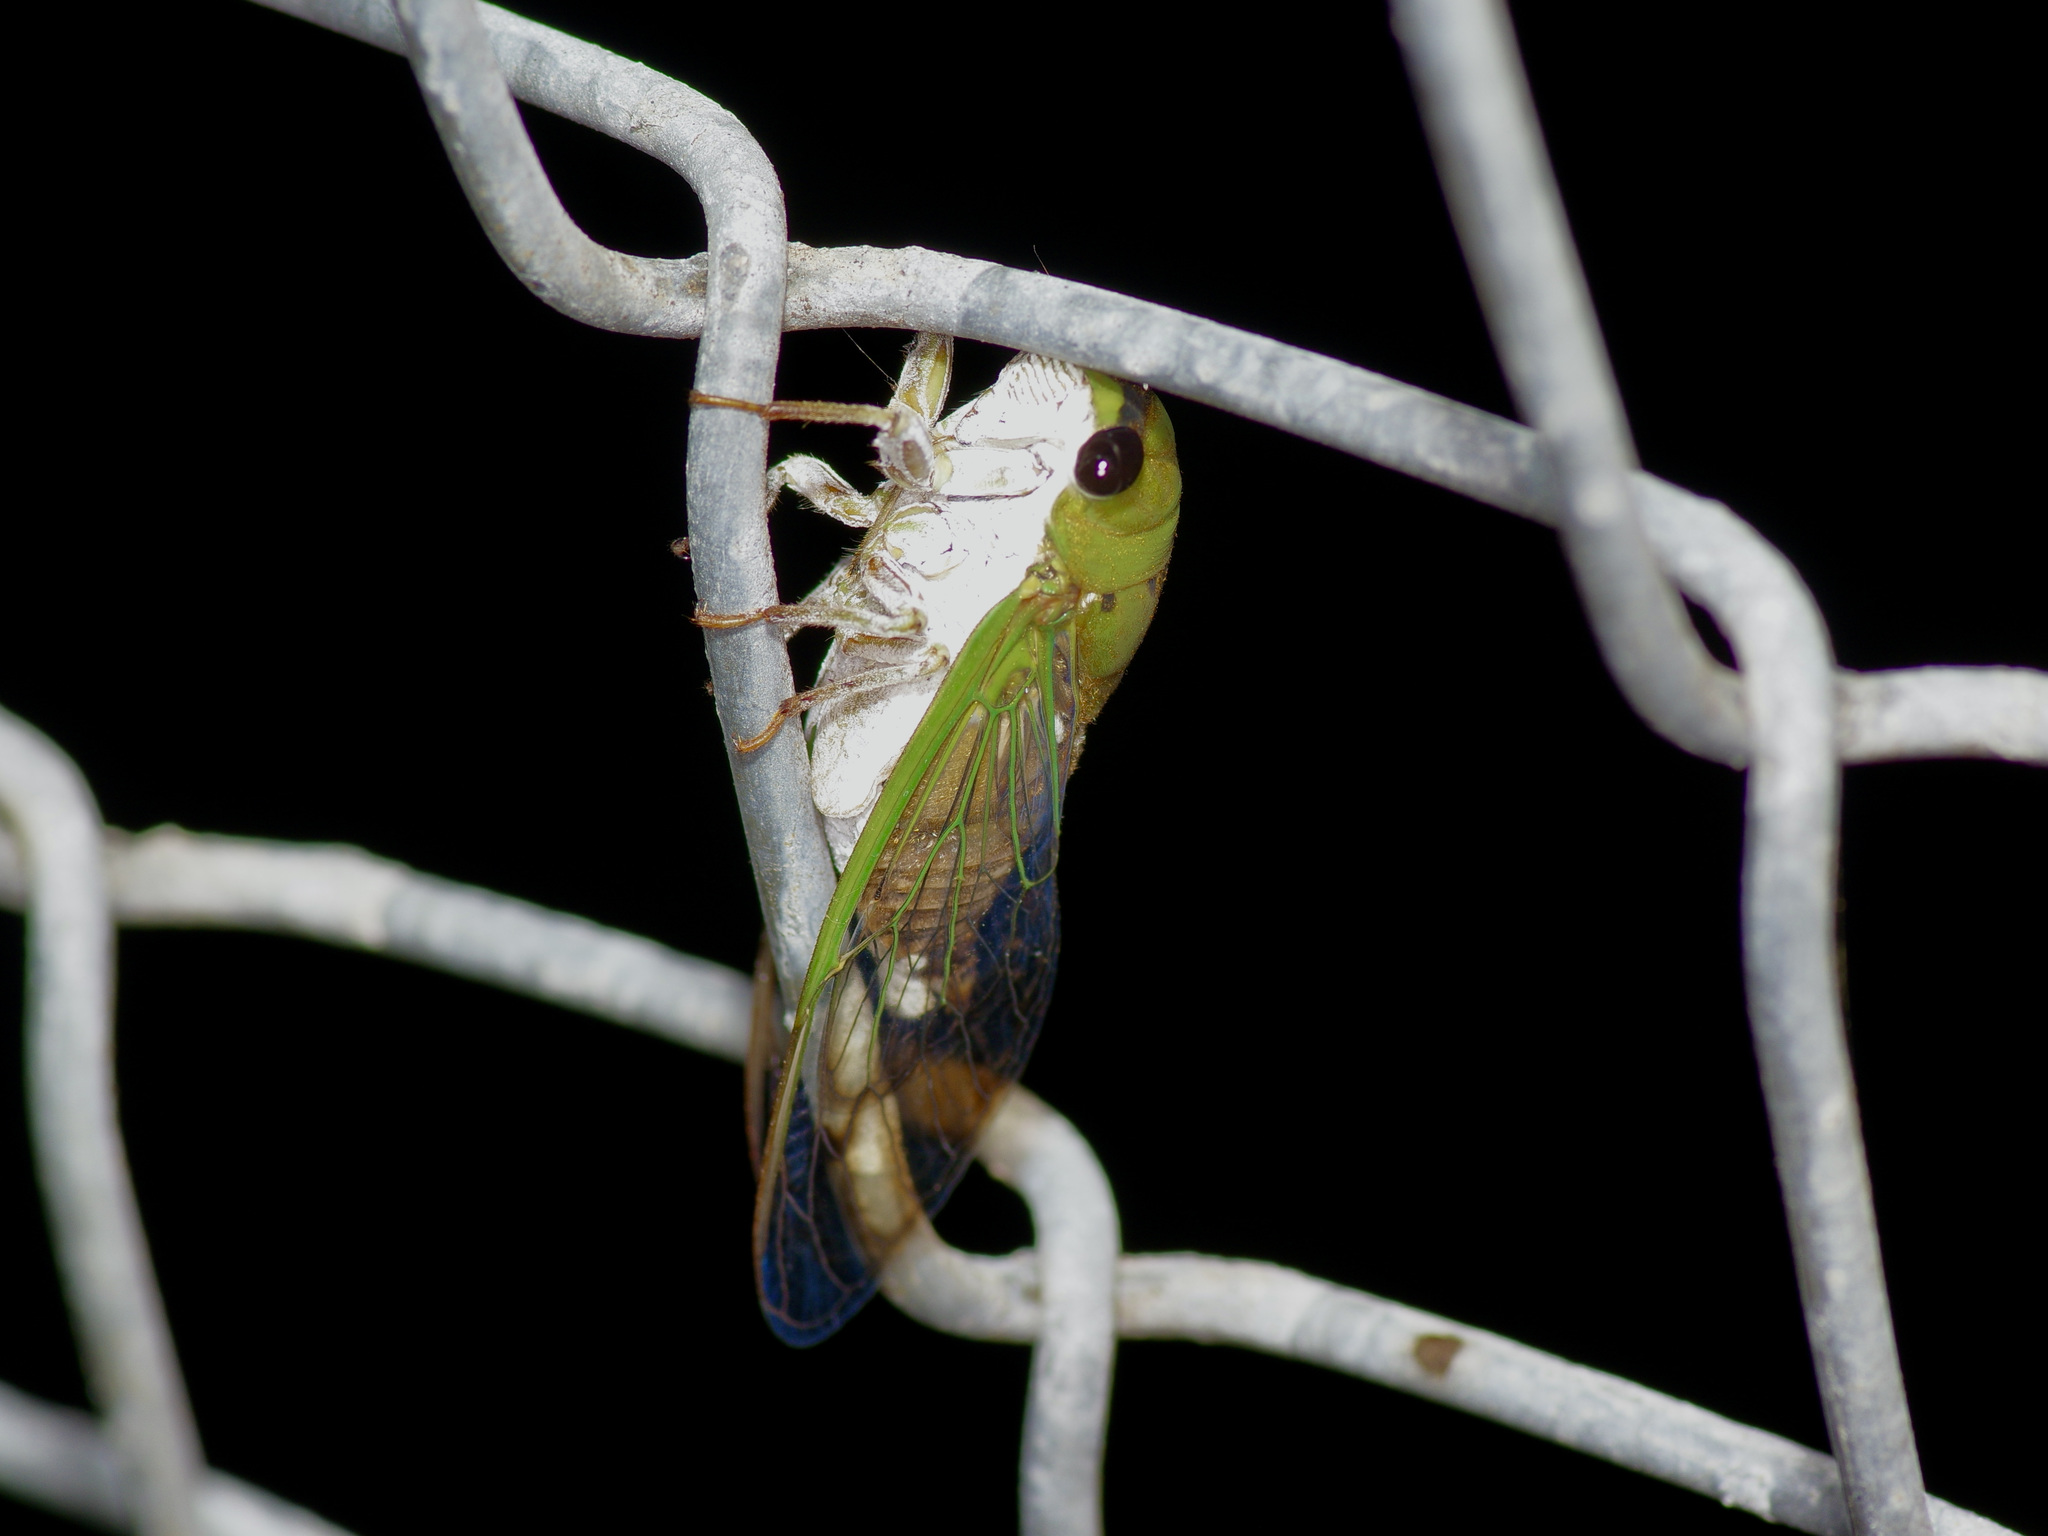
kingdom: Animalia
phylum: Arthropoda
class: Insecta
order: Hemiptera
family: Cicadidae
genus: Neotibicen
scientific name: Neotibicen superbus
